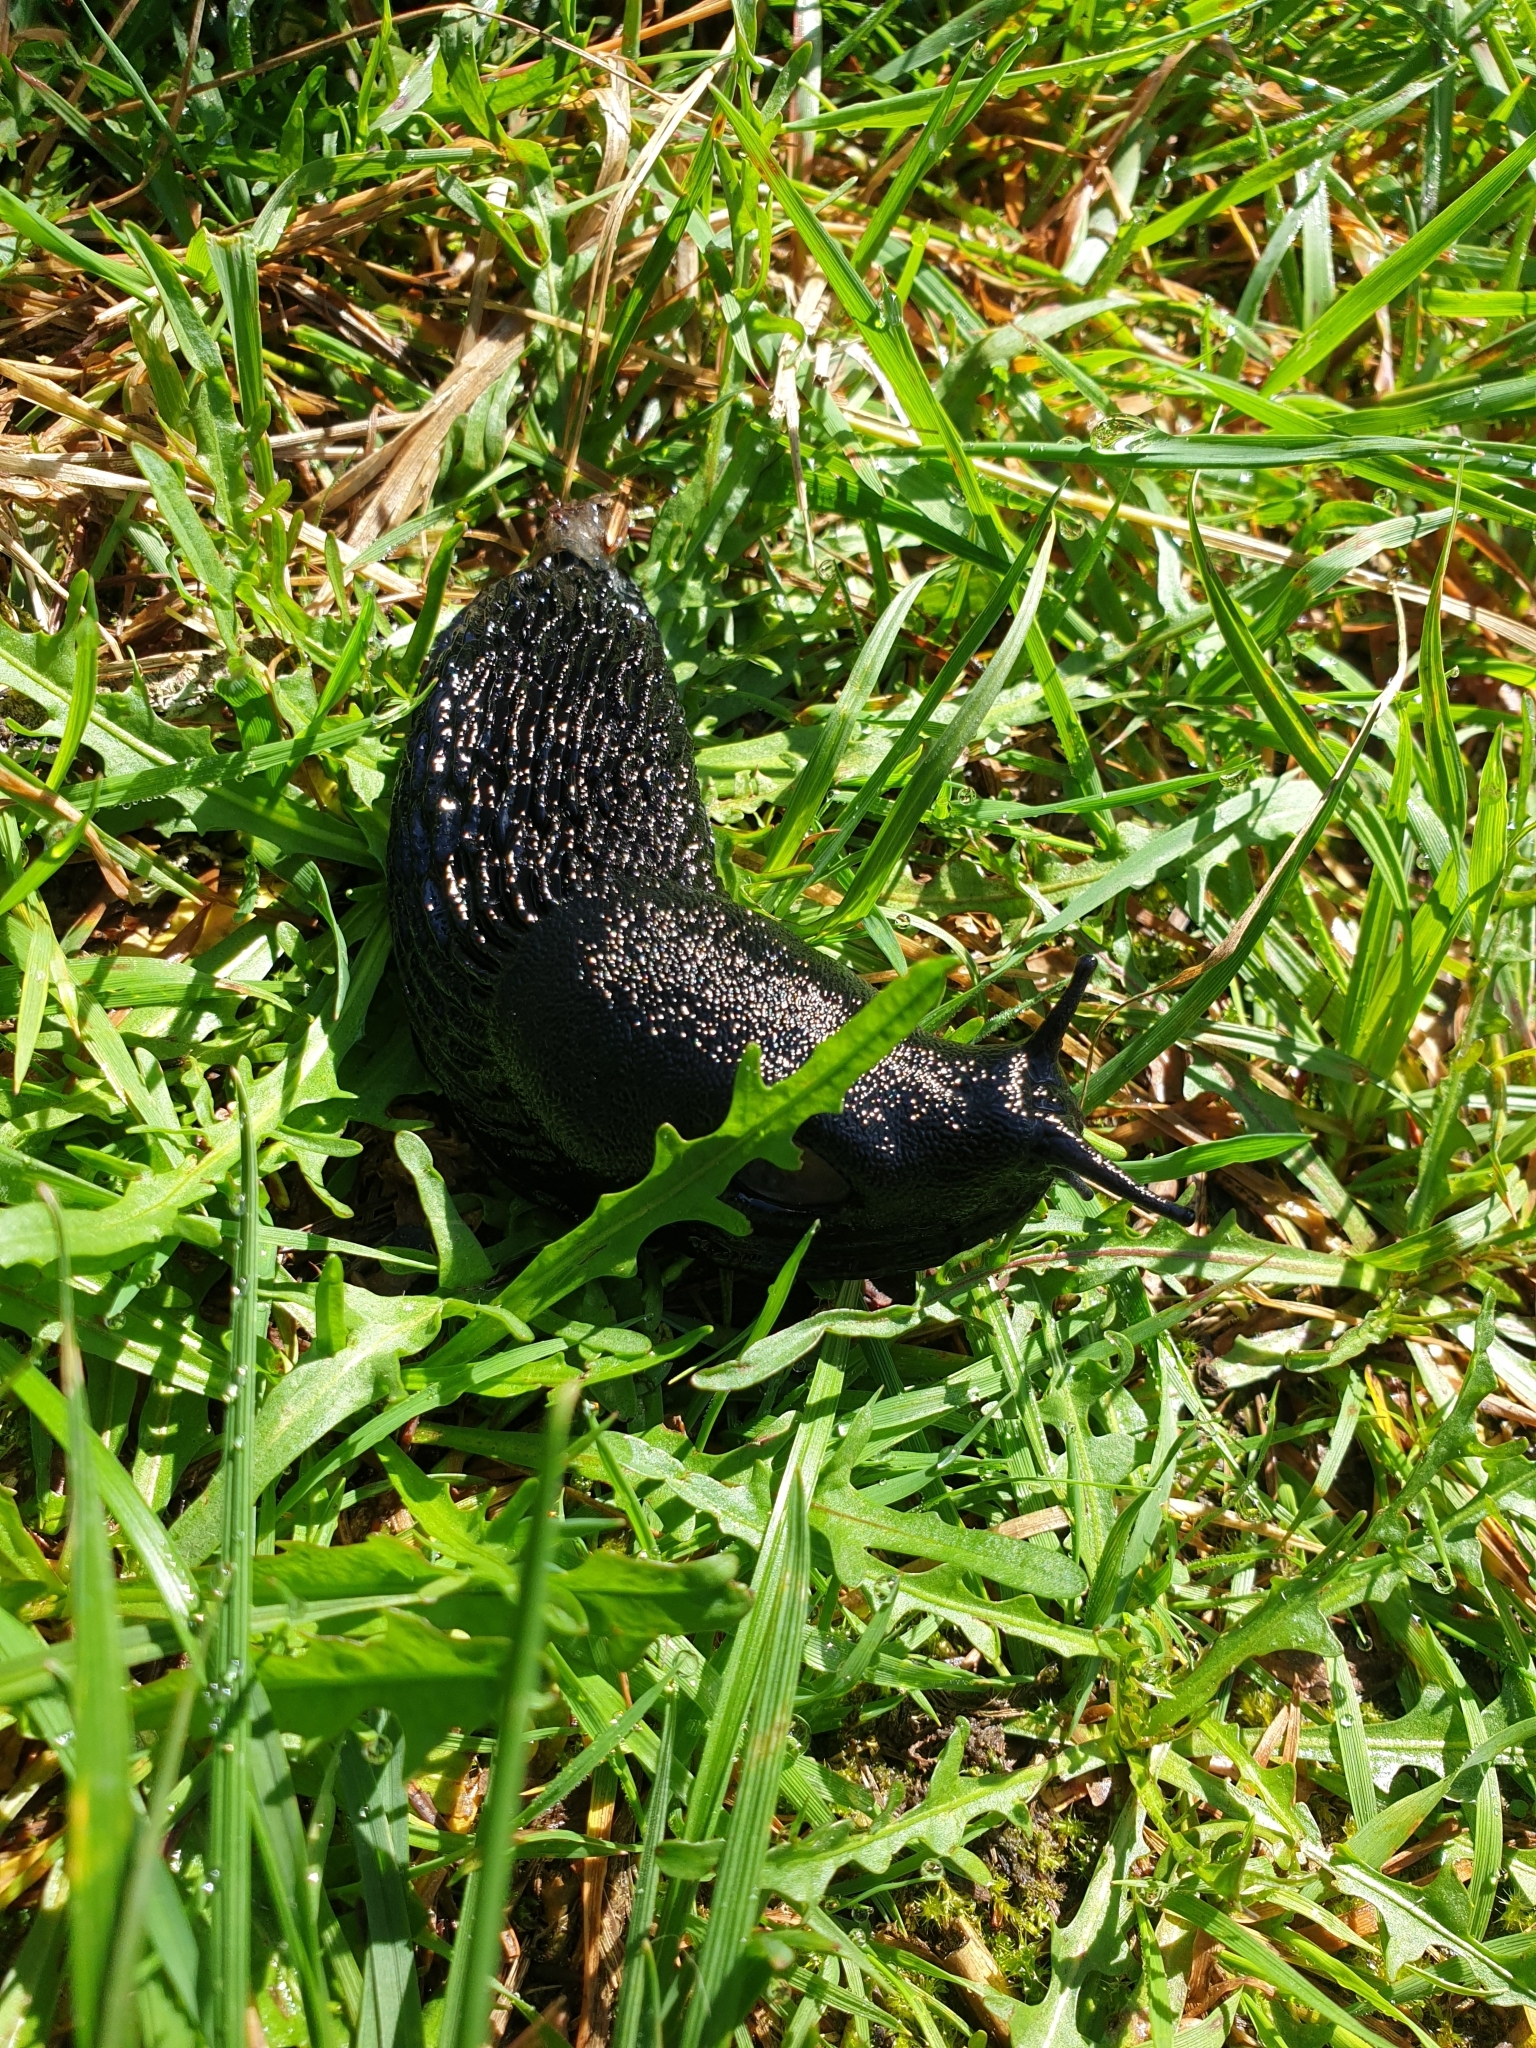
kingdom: Animalia
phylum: Mollusca
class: Gastropoda
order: Stylommatophora
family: Arionidae
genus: Arion
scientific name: Arion ater
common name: Black arion
